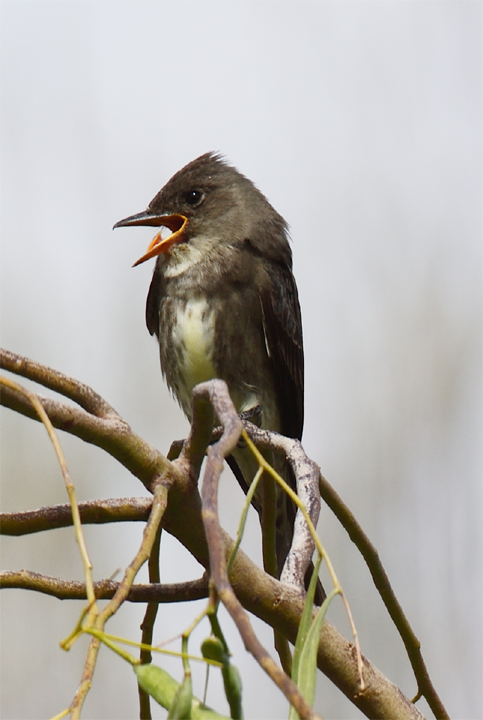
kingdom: Animalia
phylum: Chordata
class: Aves
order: Passeriformes
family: Tyrannidae
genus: Contopus
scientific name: Contopus cooperi
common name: Olive-sided flycatcher
